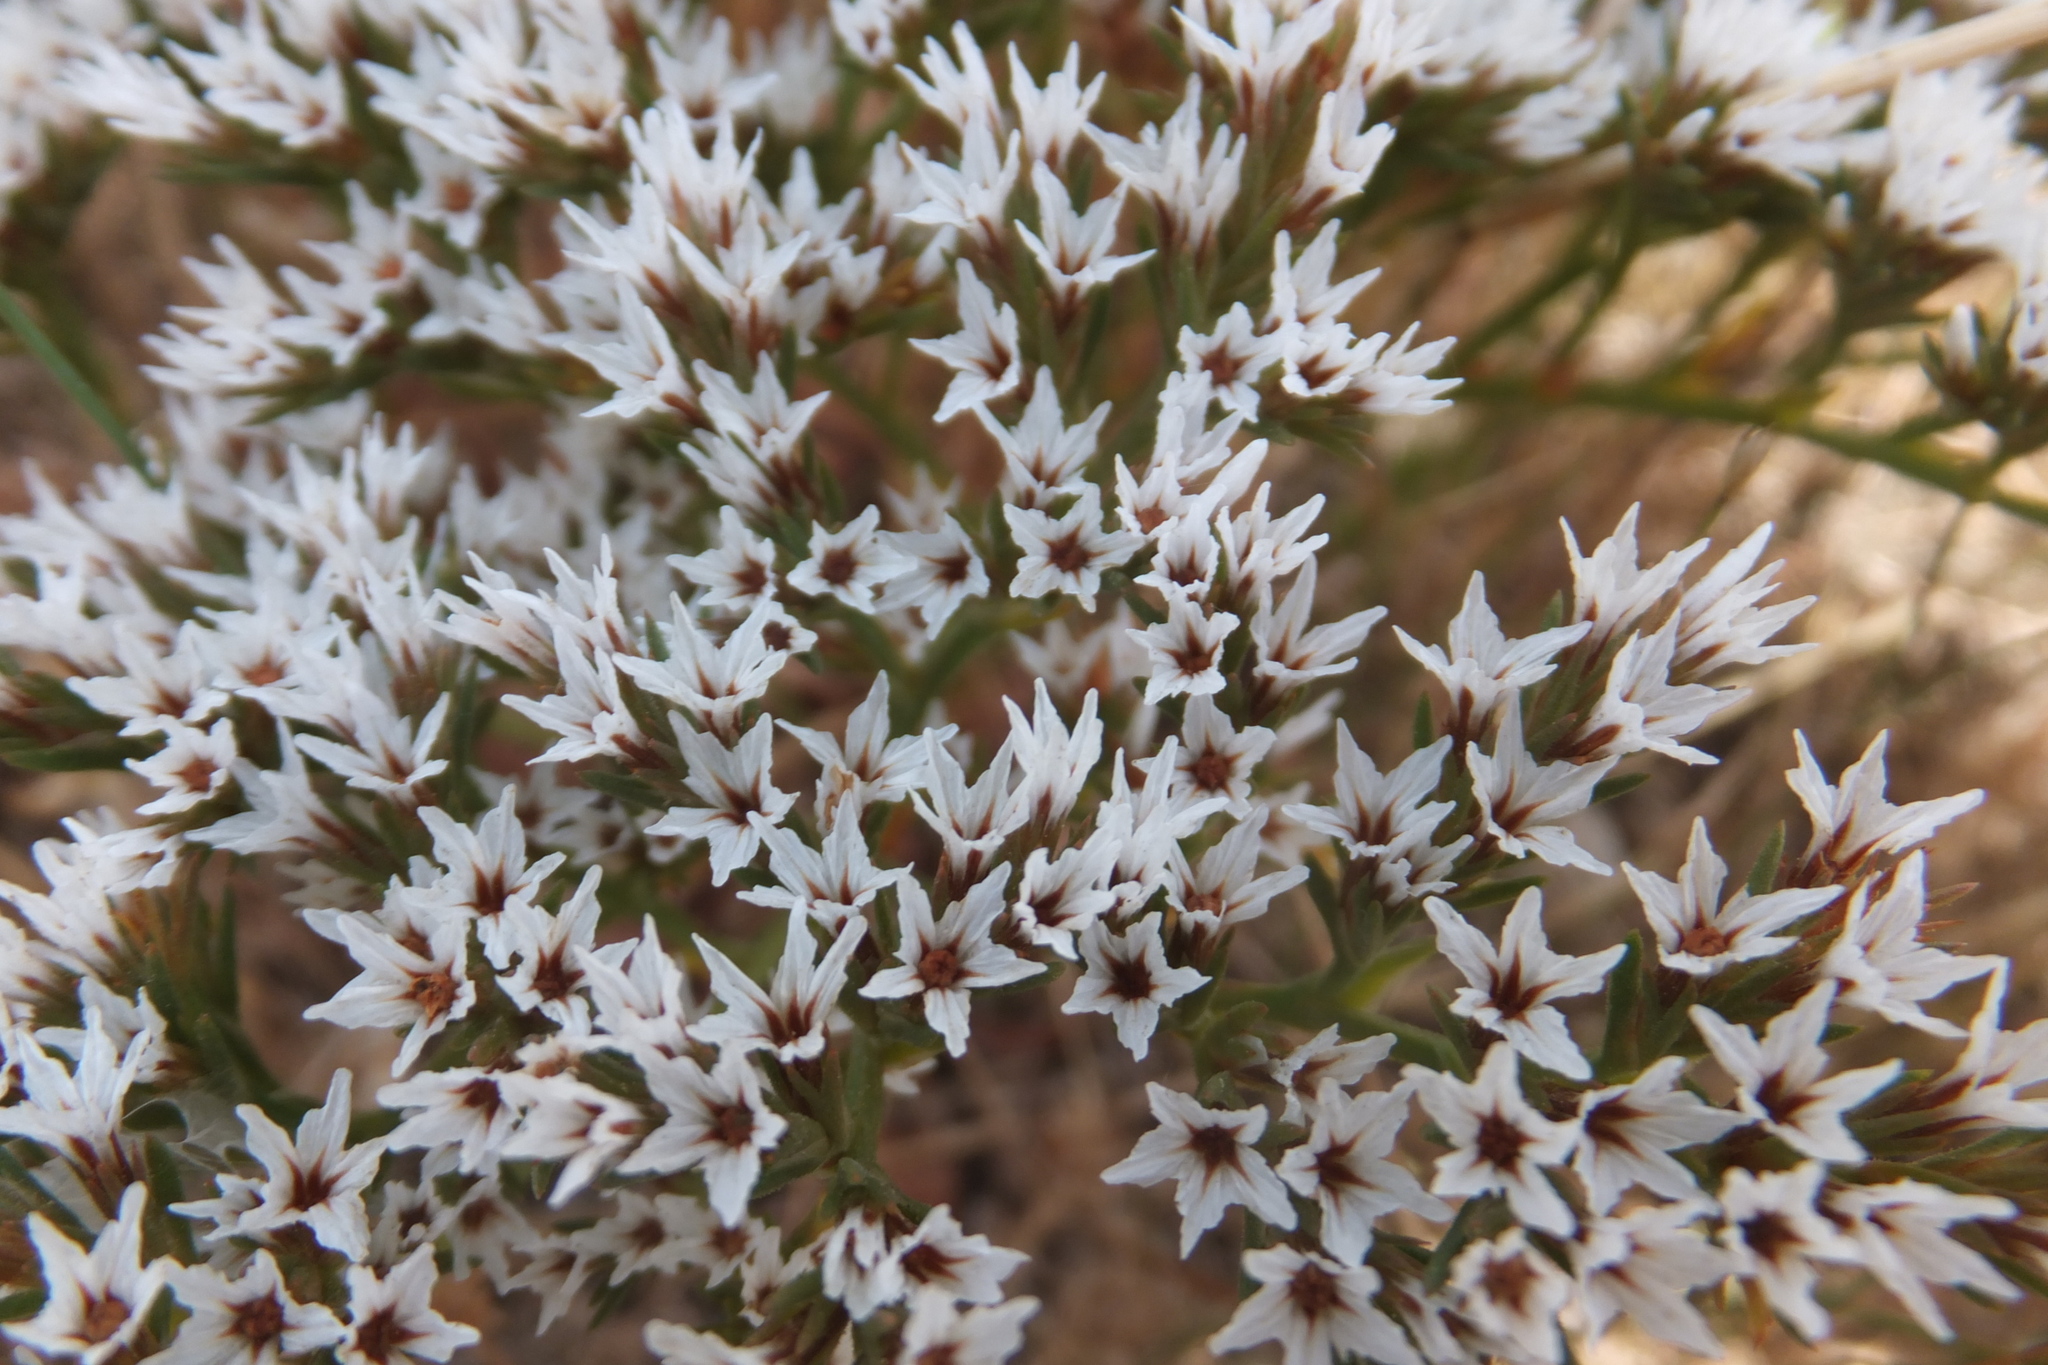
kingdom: Plantae
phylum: Tracheophyta
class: Magnoliopsida
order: Caryophyllales
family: Plumbaginaceae
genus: Goniolimon
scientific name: Goniolimon tataricum
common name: Statice
